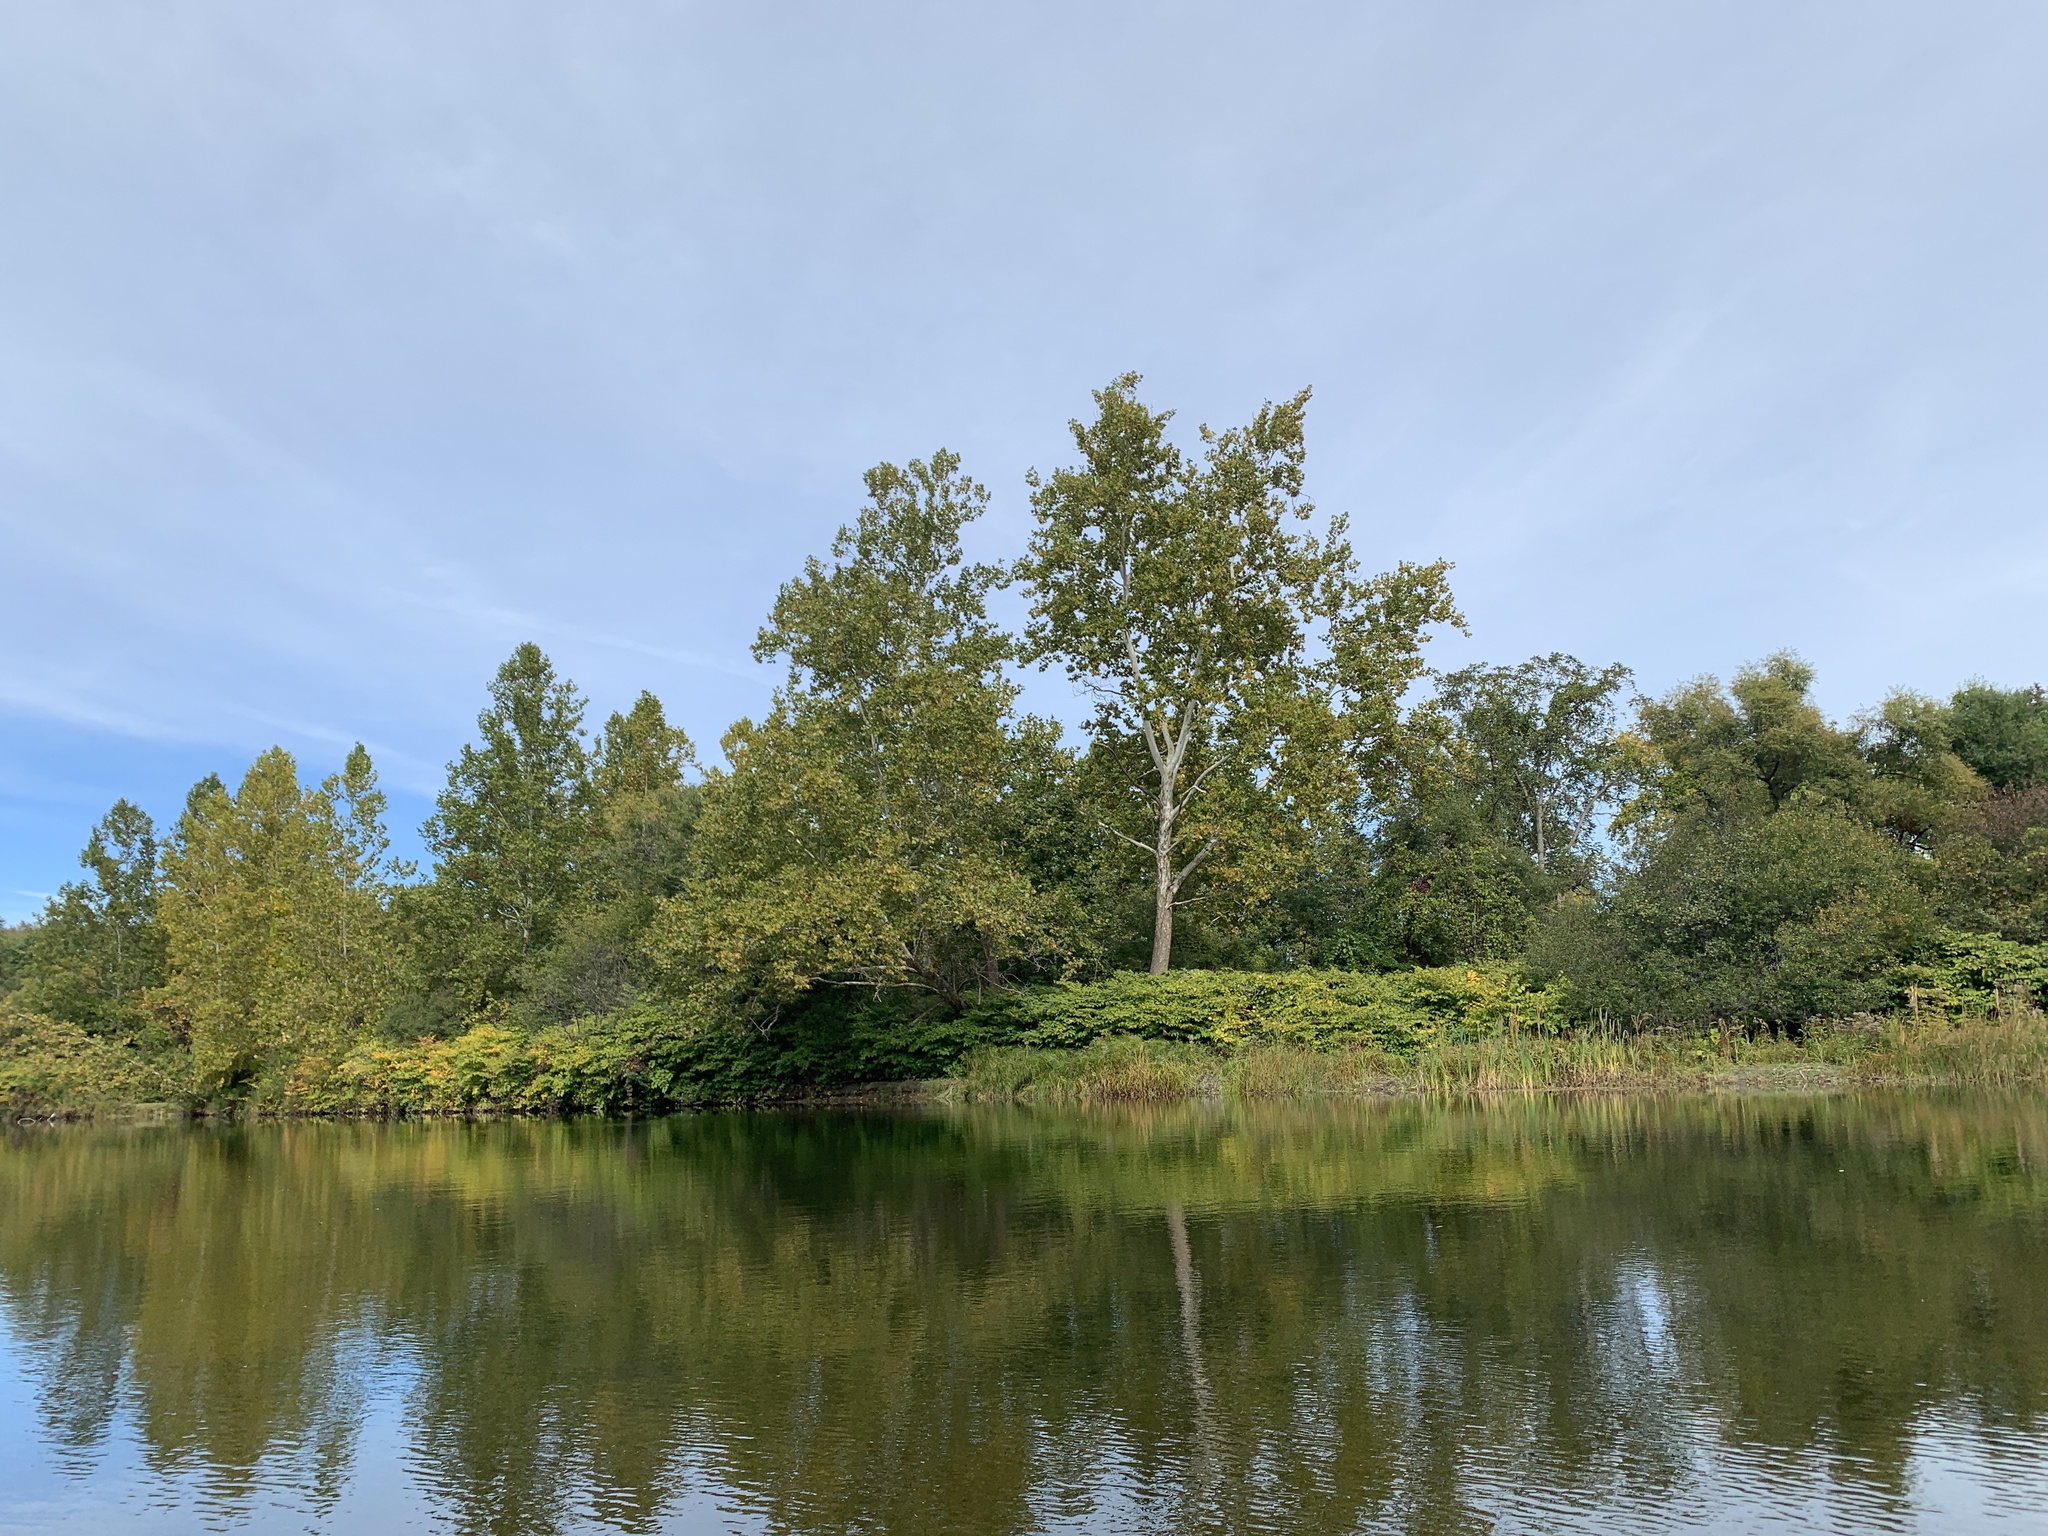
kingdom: Plantae
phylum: Tracheophyta
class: Magnoliopsida
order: Proteales
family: Platanaceae
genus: Platanus
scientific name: Platanus occidentalis
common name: American sycamore
